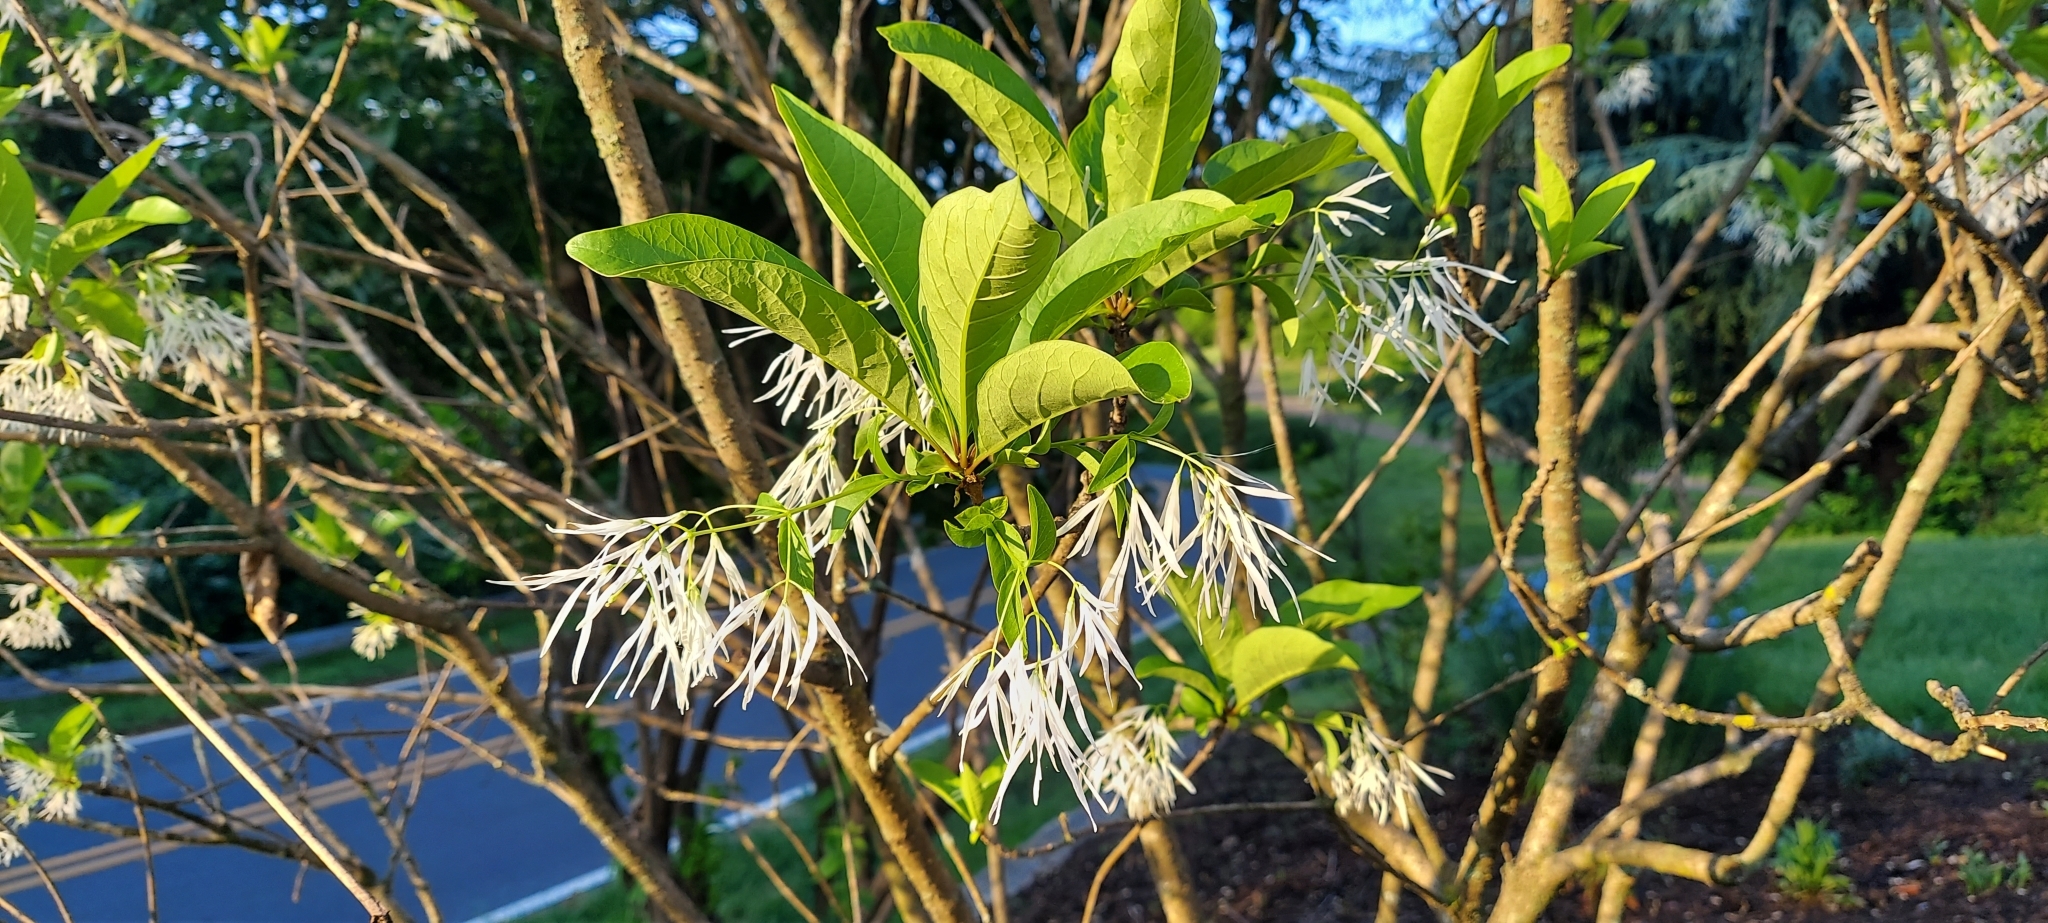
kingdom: Plantae
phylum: Tracheophyta
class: Magnoliopsida
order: Lamiales
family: Oleaceae
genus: Chionanthus
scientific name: Chionanthus virginicus
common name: American fringetree
